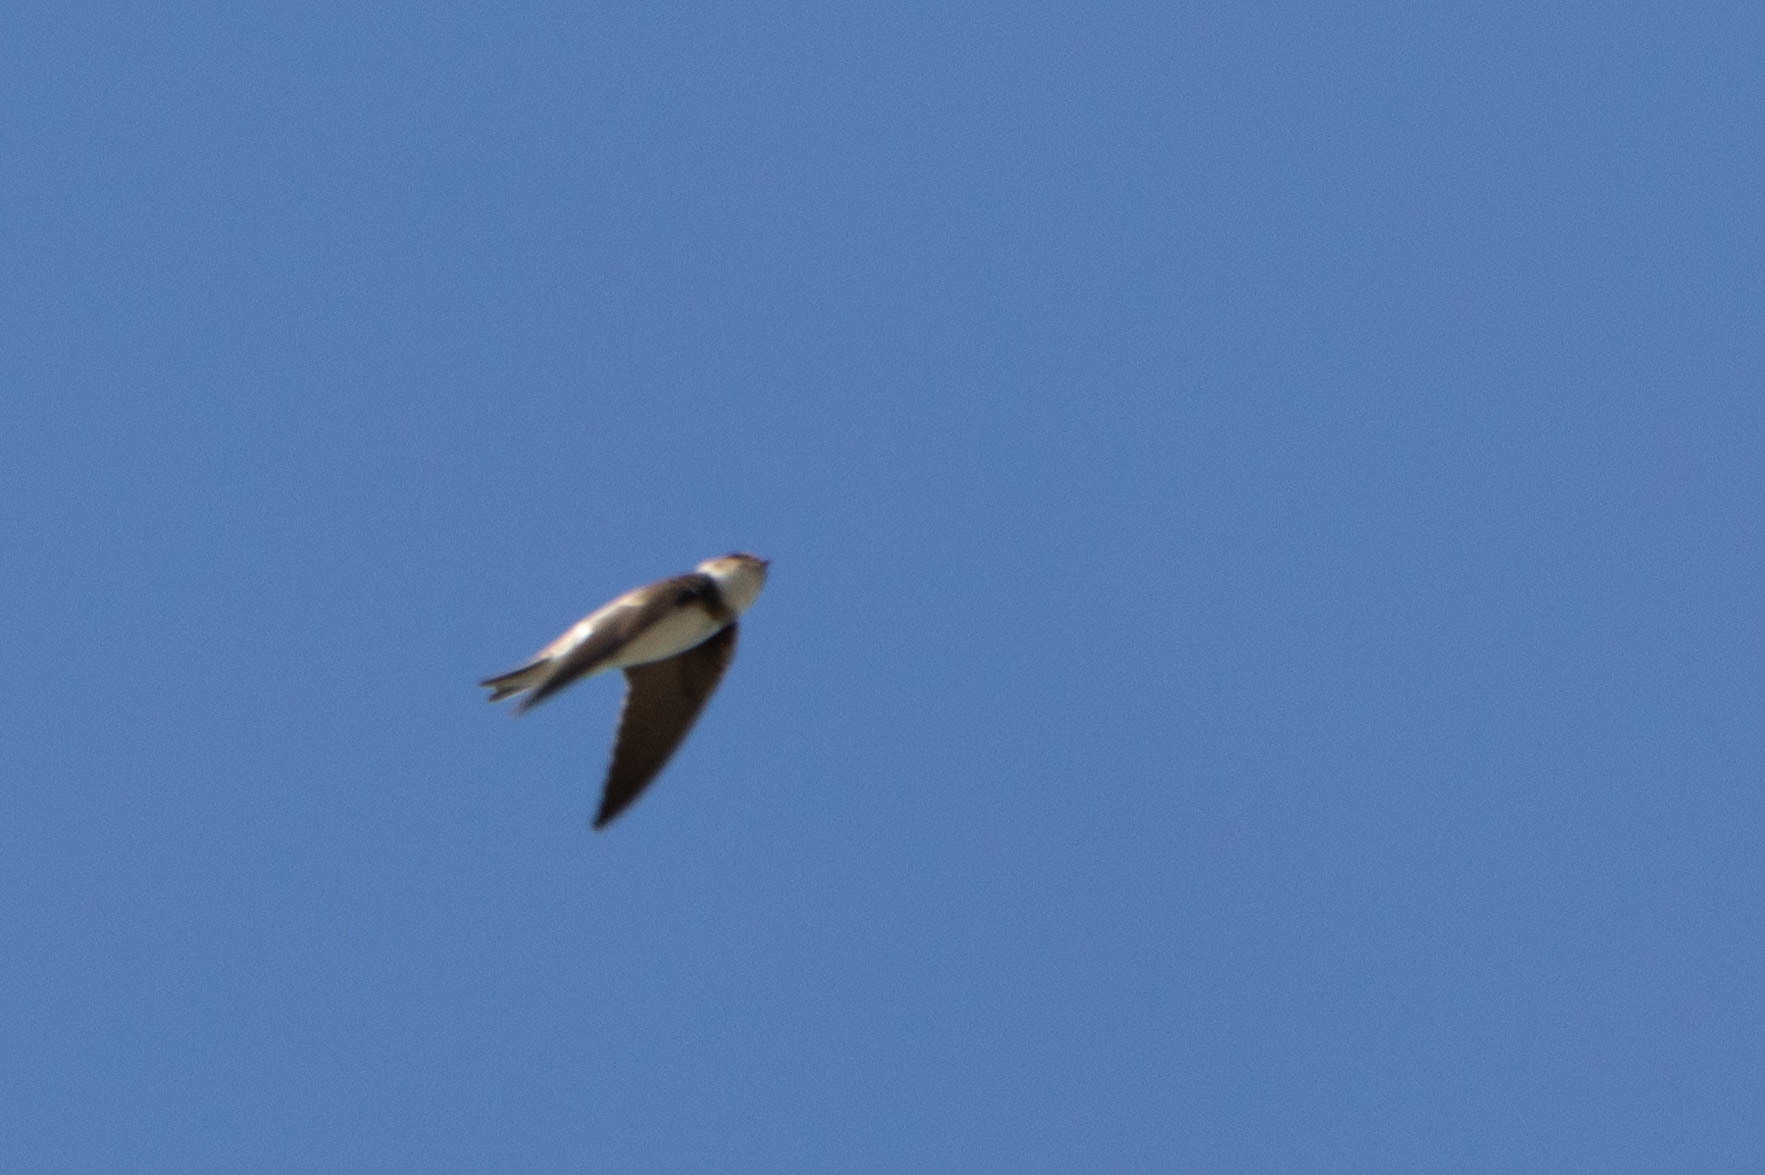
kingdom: Animalia
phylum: Chordata
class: Aves
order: Passeriformes
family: Hirundinidae
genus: Riparia
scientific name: Riparia riparia
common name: Sand martin
